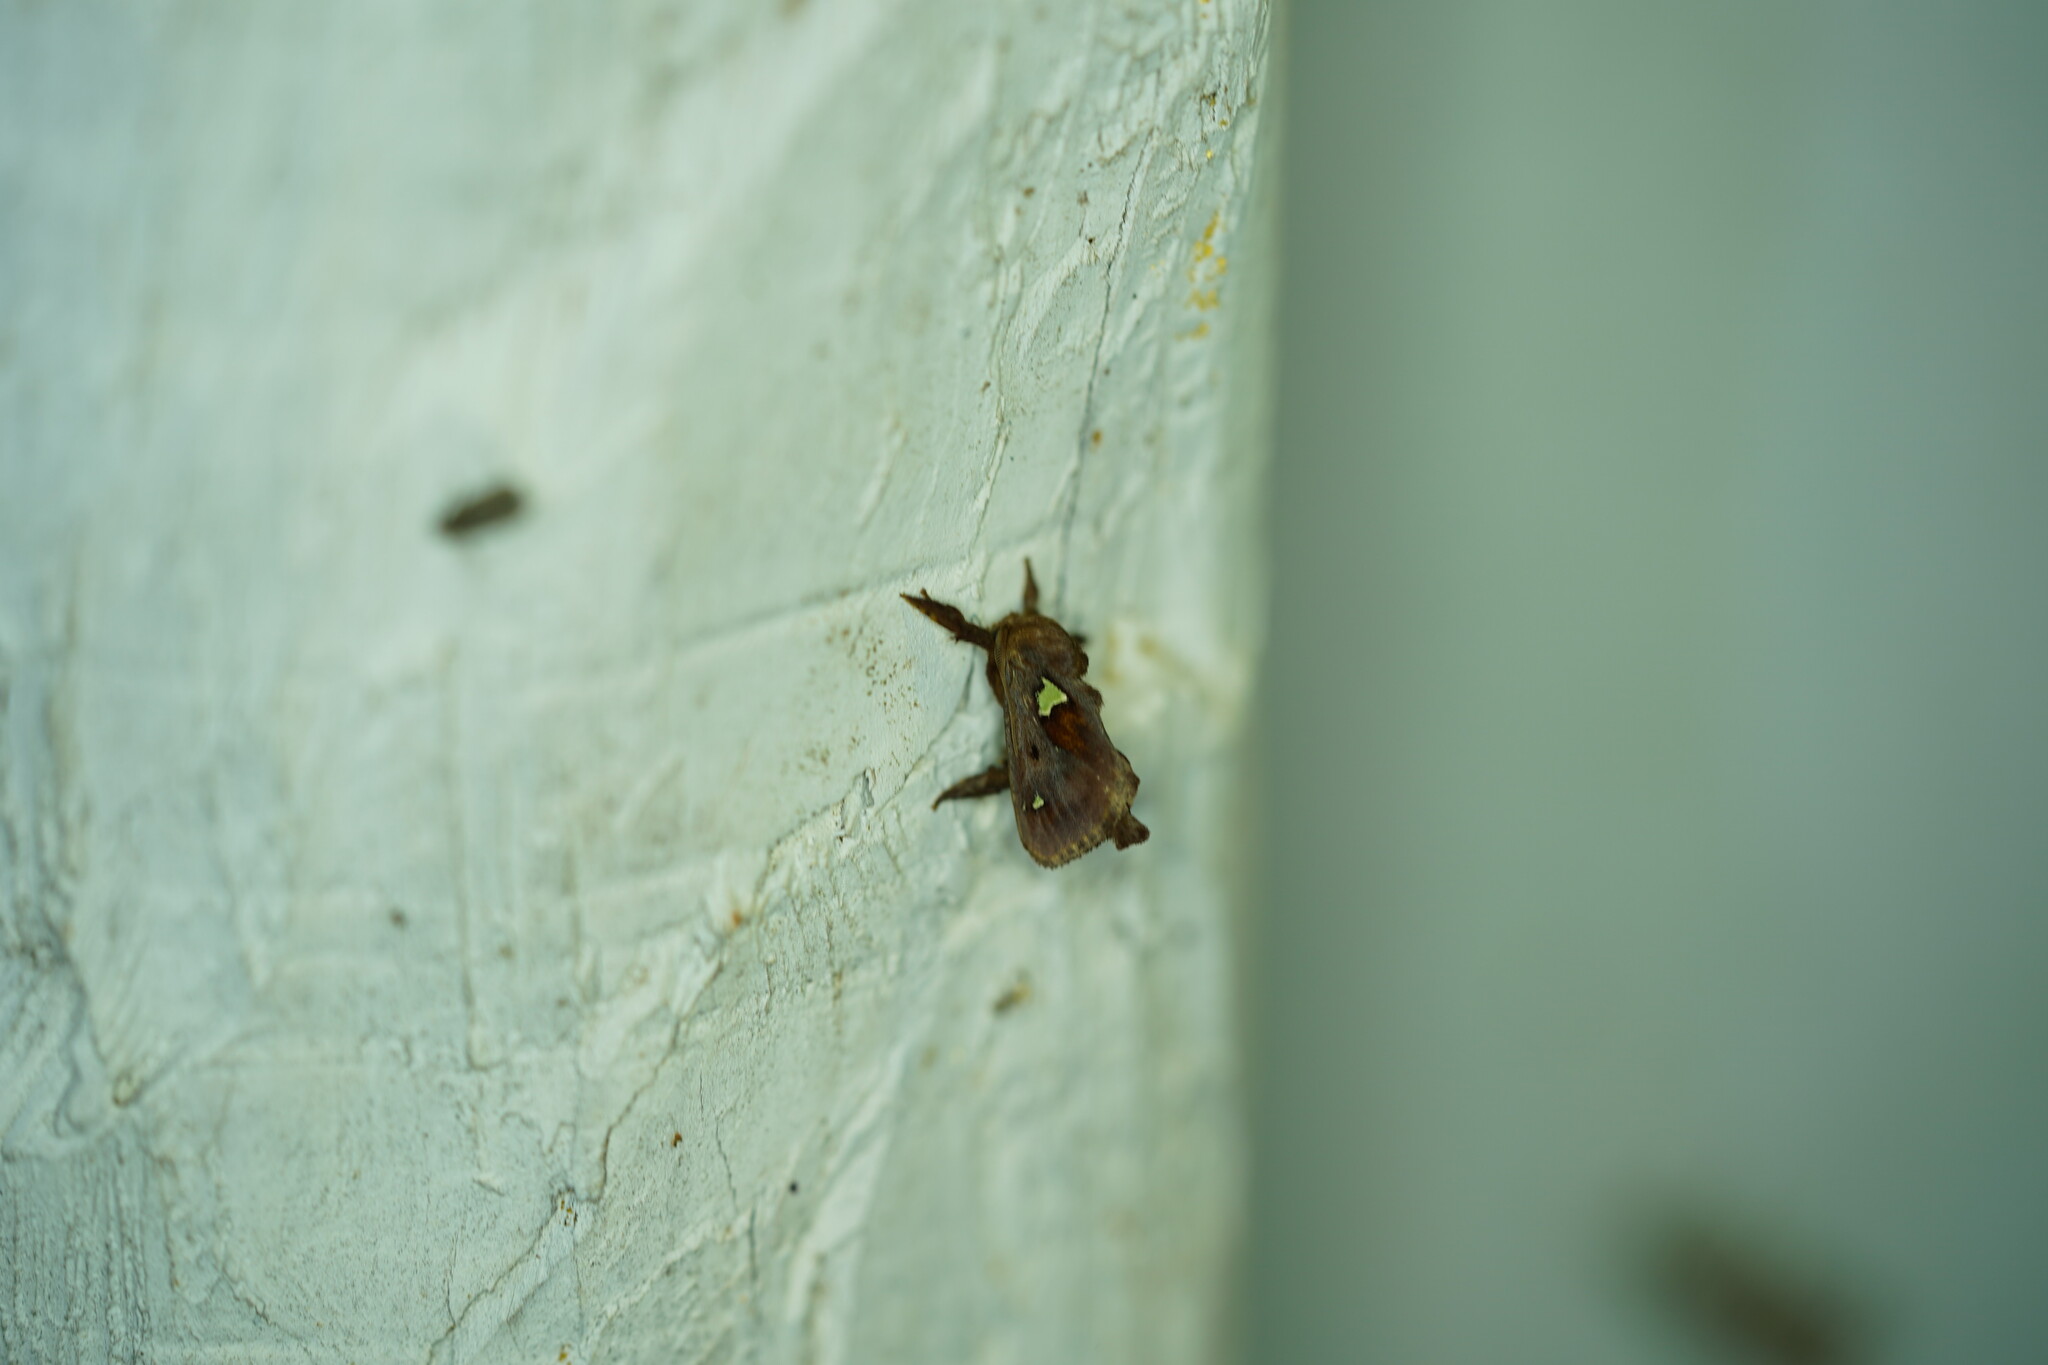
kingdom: Animalia
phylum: Arthropoda
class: Insecta
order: Lepidoptera
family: Limacodidae
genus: Euclea
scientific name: Euclea delphinii
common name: Spiny oak-slug moth
